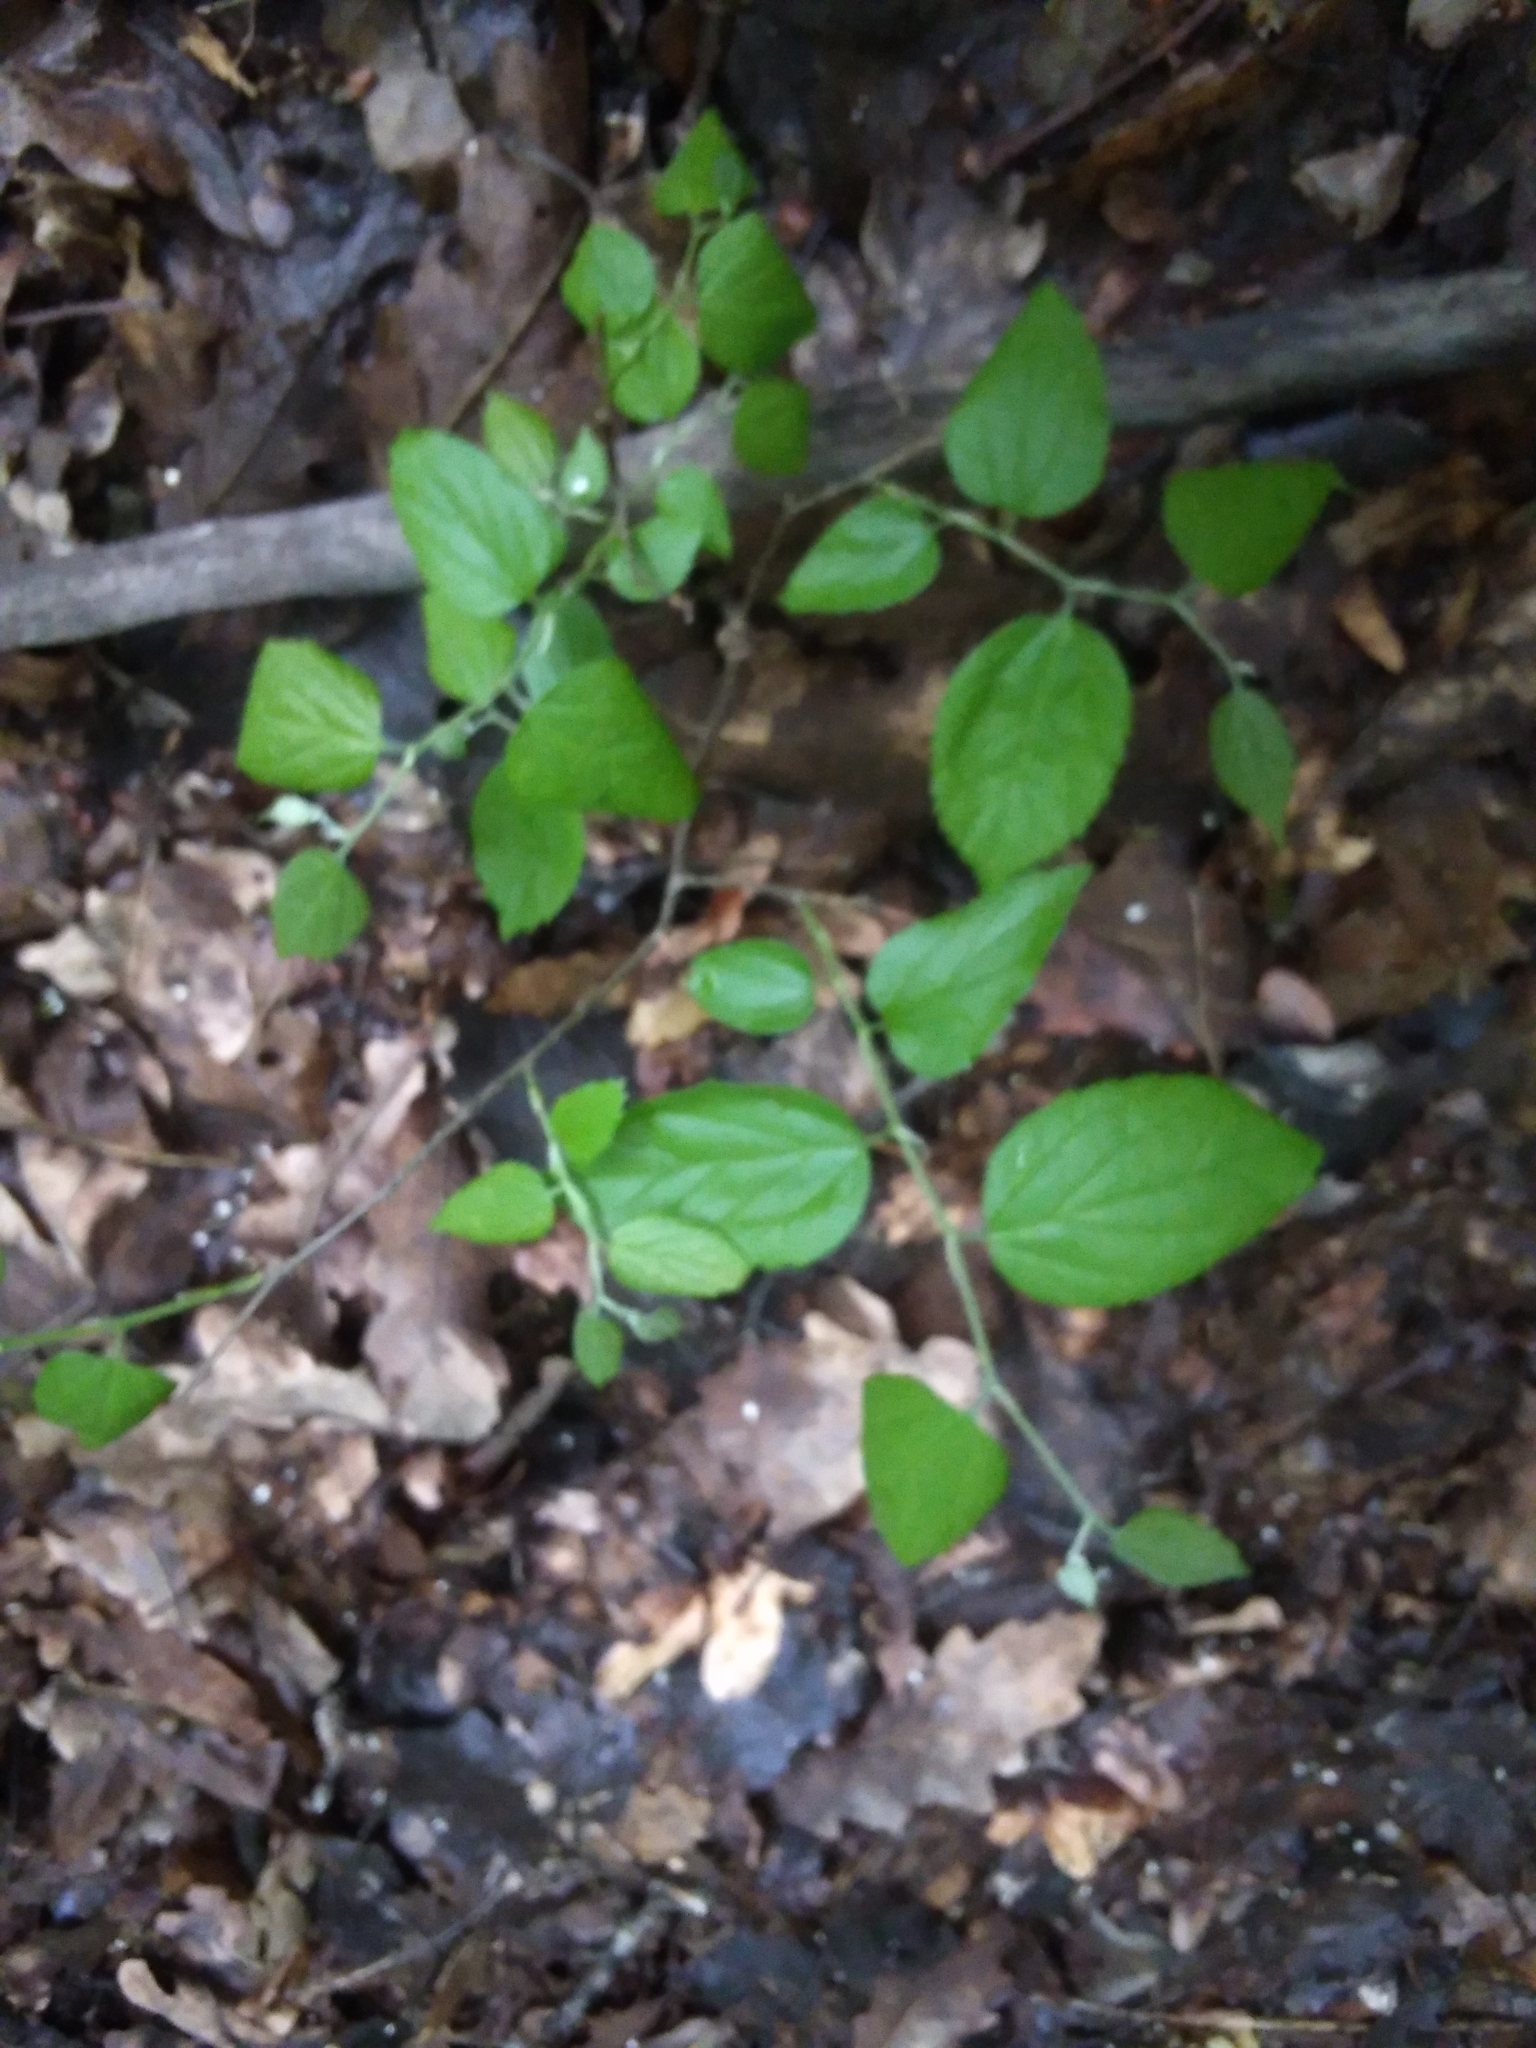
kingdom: Plantae
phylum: Tracheophyta
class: Magnoliopsida
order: Rosales
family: Cannabaceae
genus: Celtis
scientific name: Celtis occidentalis
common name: Common hackberry
